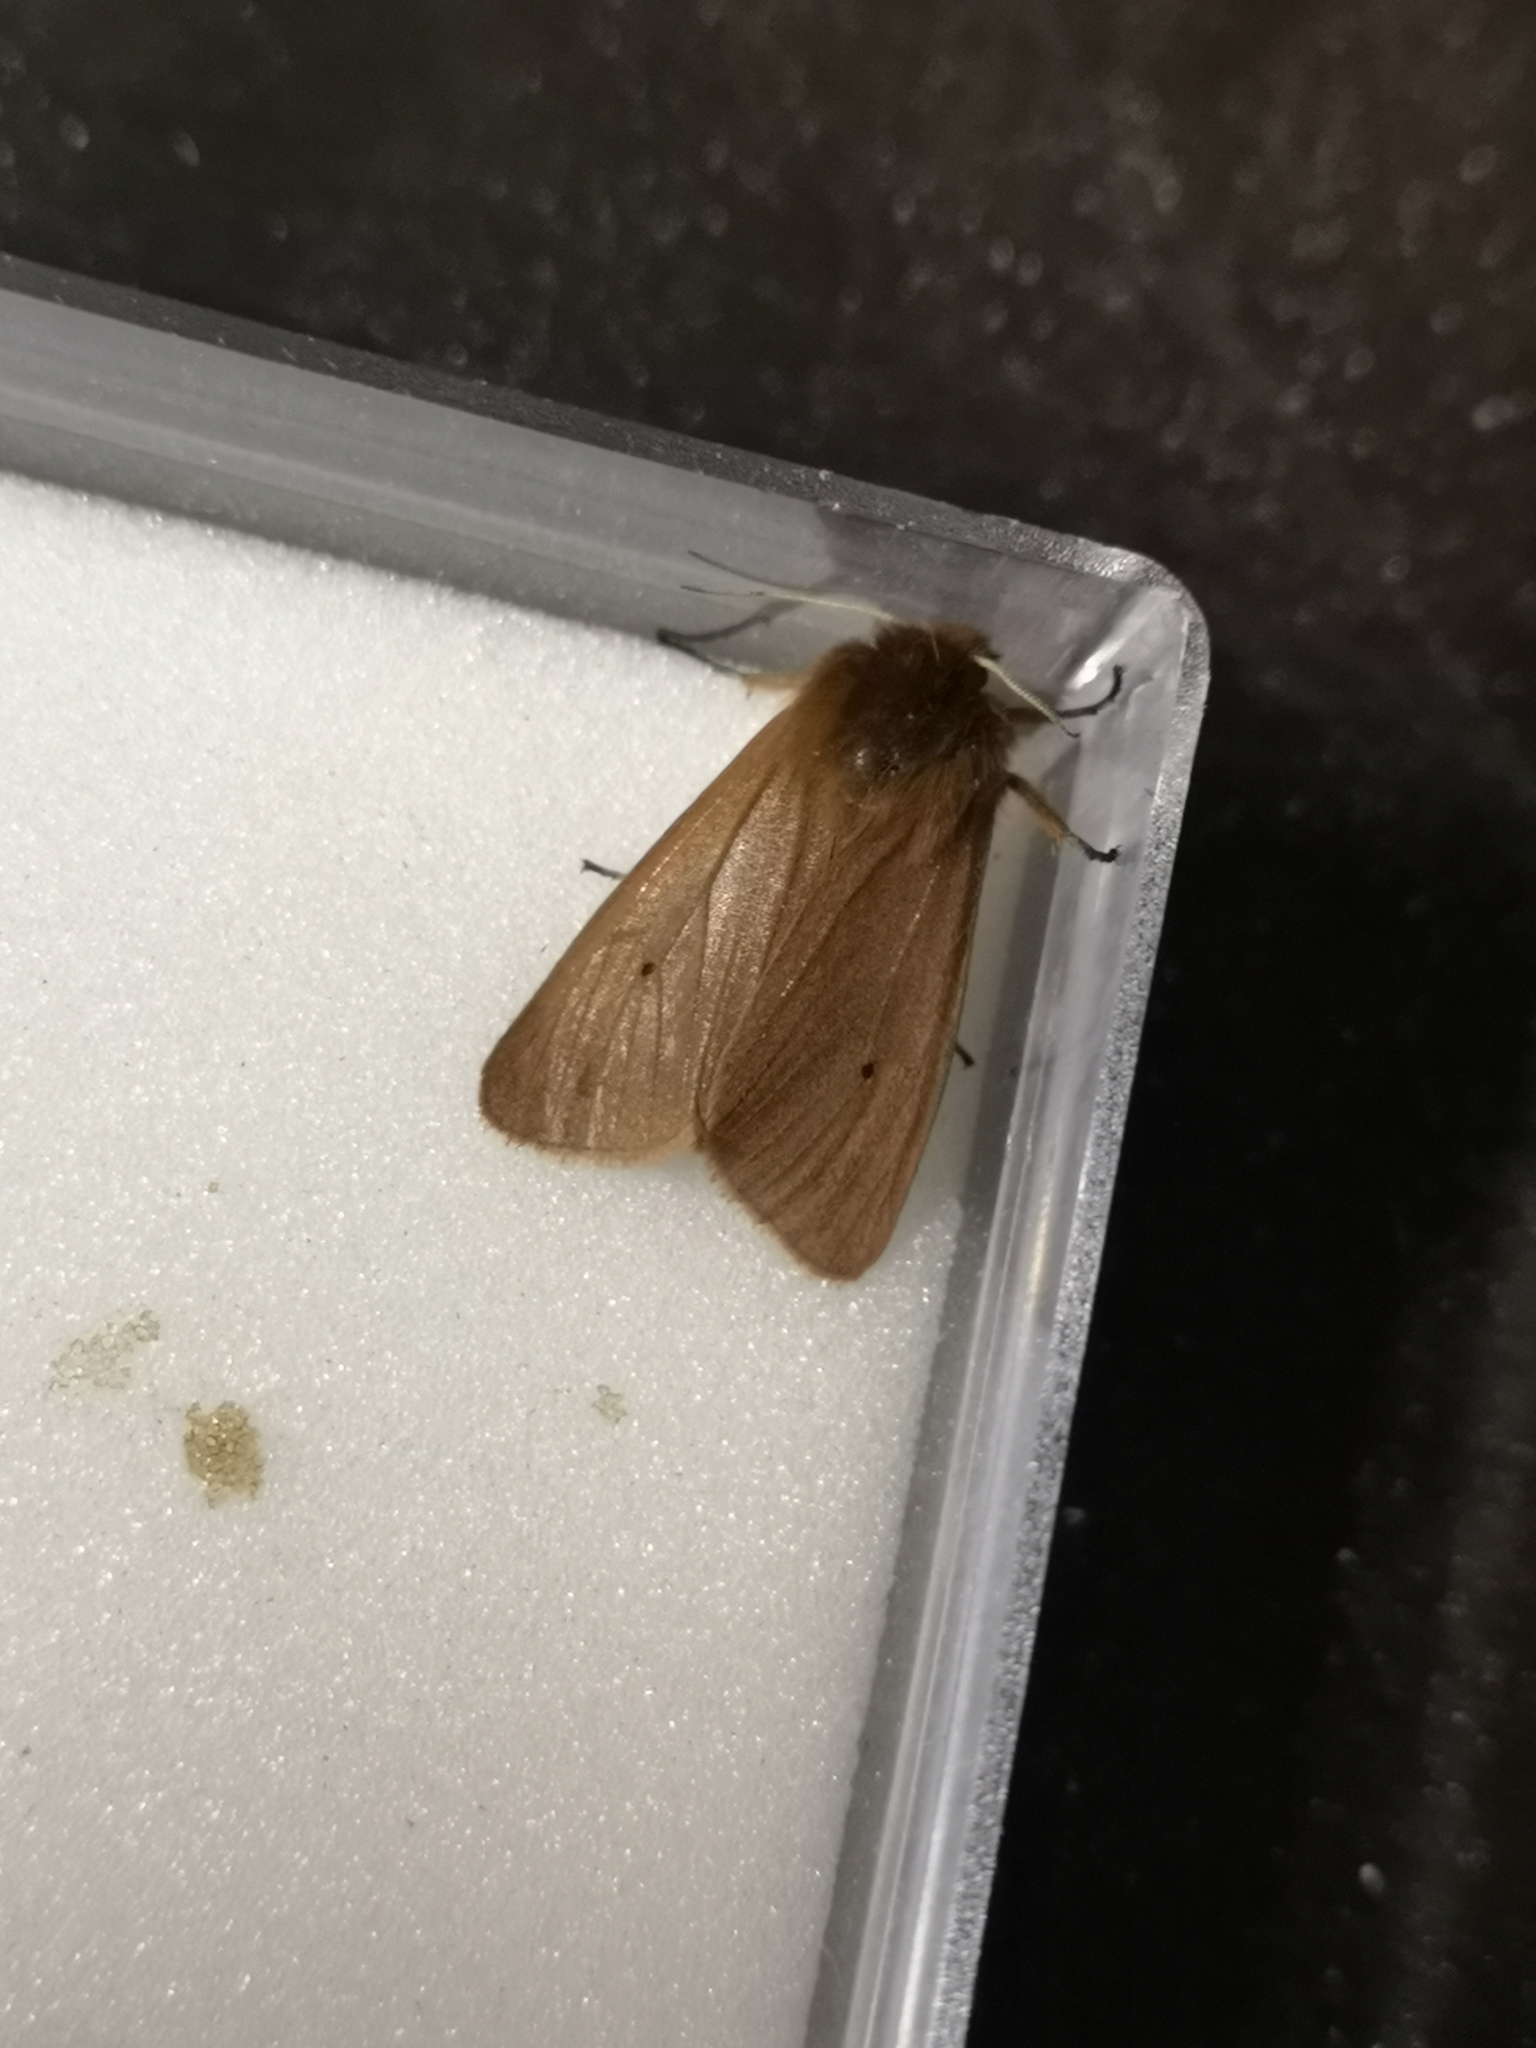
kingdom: Animalia
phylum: Arthropoda
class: Insecta
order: Lepidoptera
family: Erebidae
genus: Phragmatobia
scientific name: Phragmatobia fuliginosa
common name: Ruby tiger
